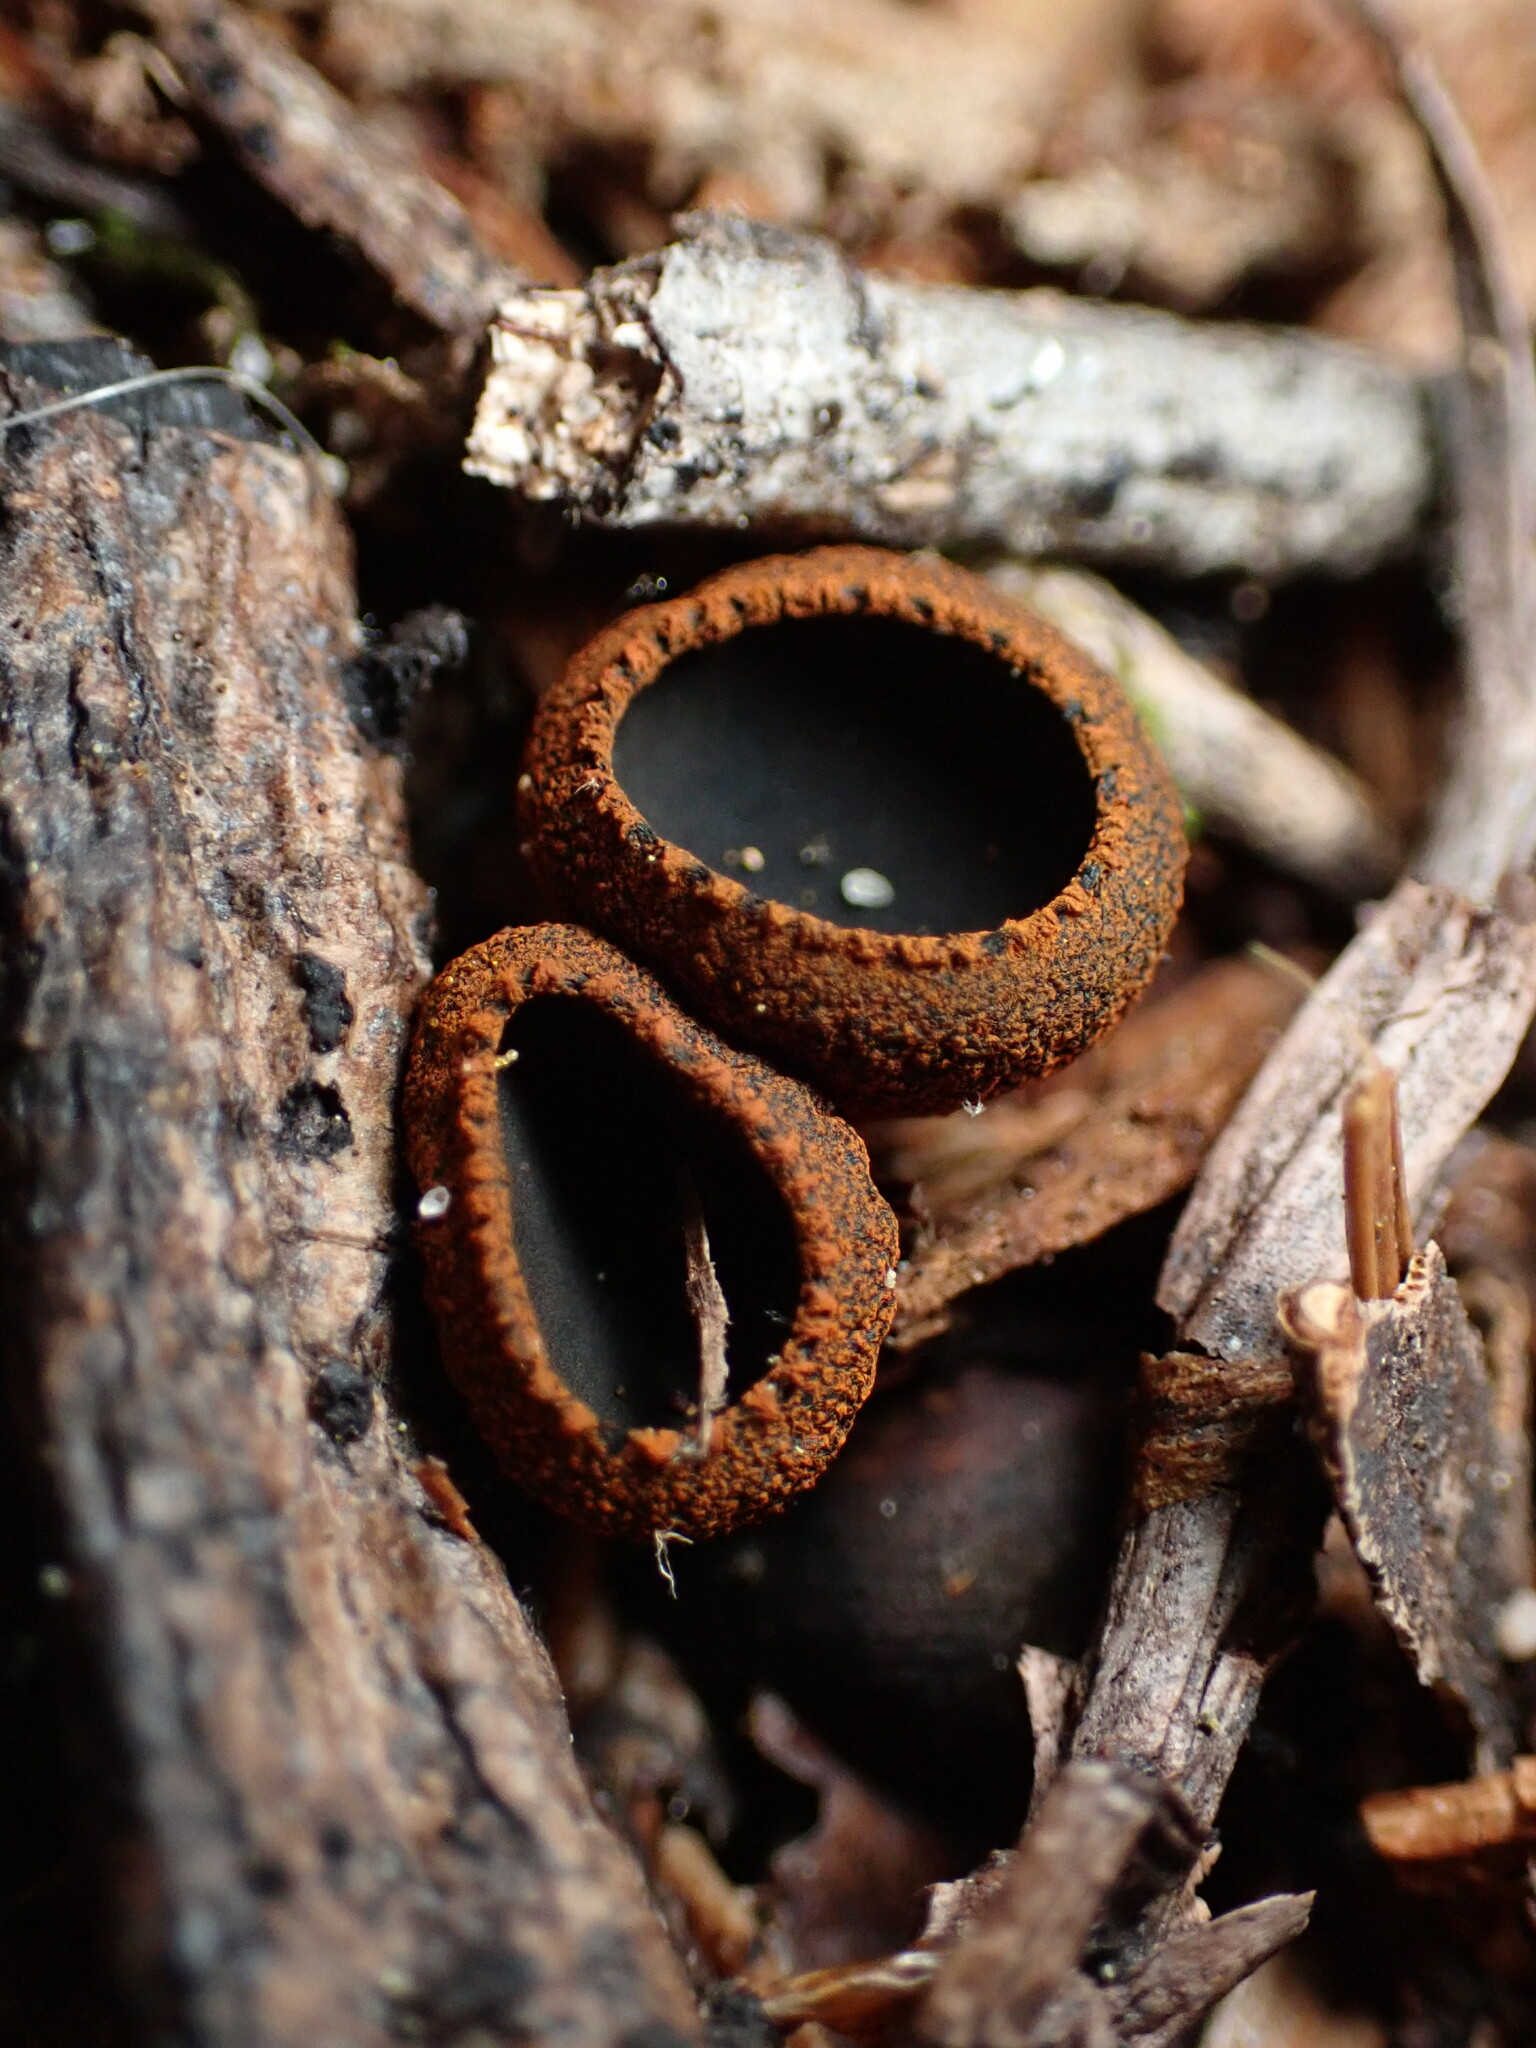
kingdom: Fungi
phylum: Ascomycota
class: Pezizomycetes
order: Pezizales
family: Sarcosomataceae
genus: Plectania
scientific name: Plectania melastoma
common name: Corona cup
